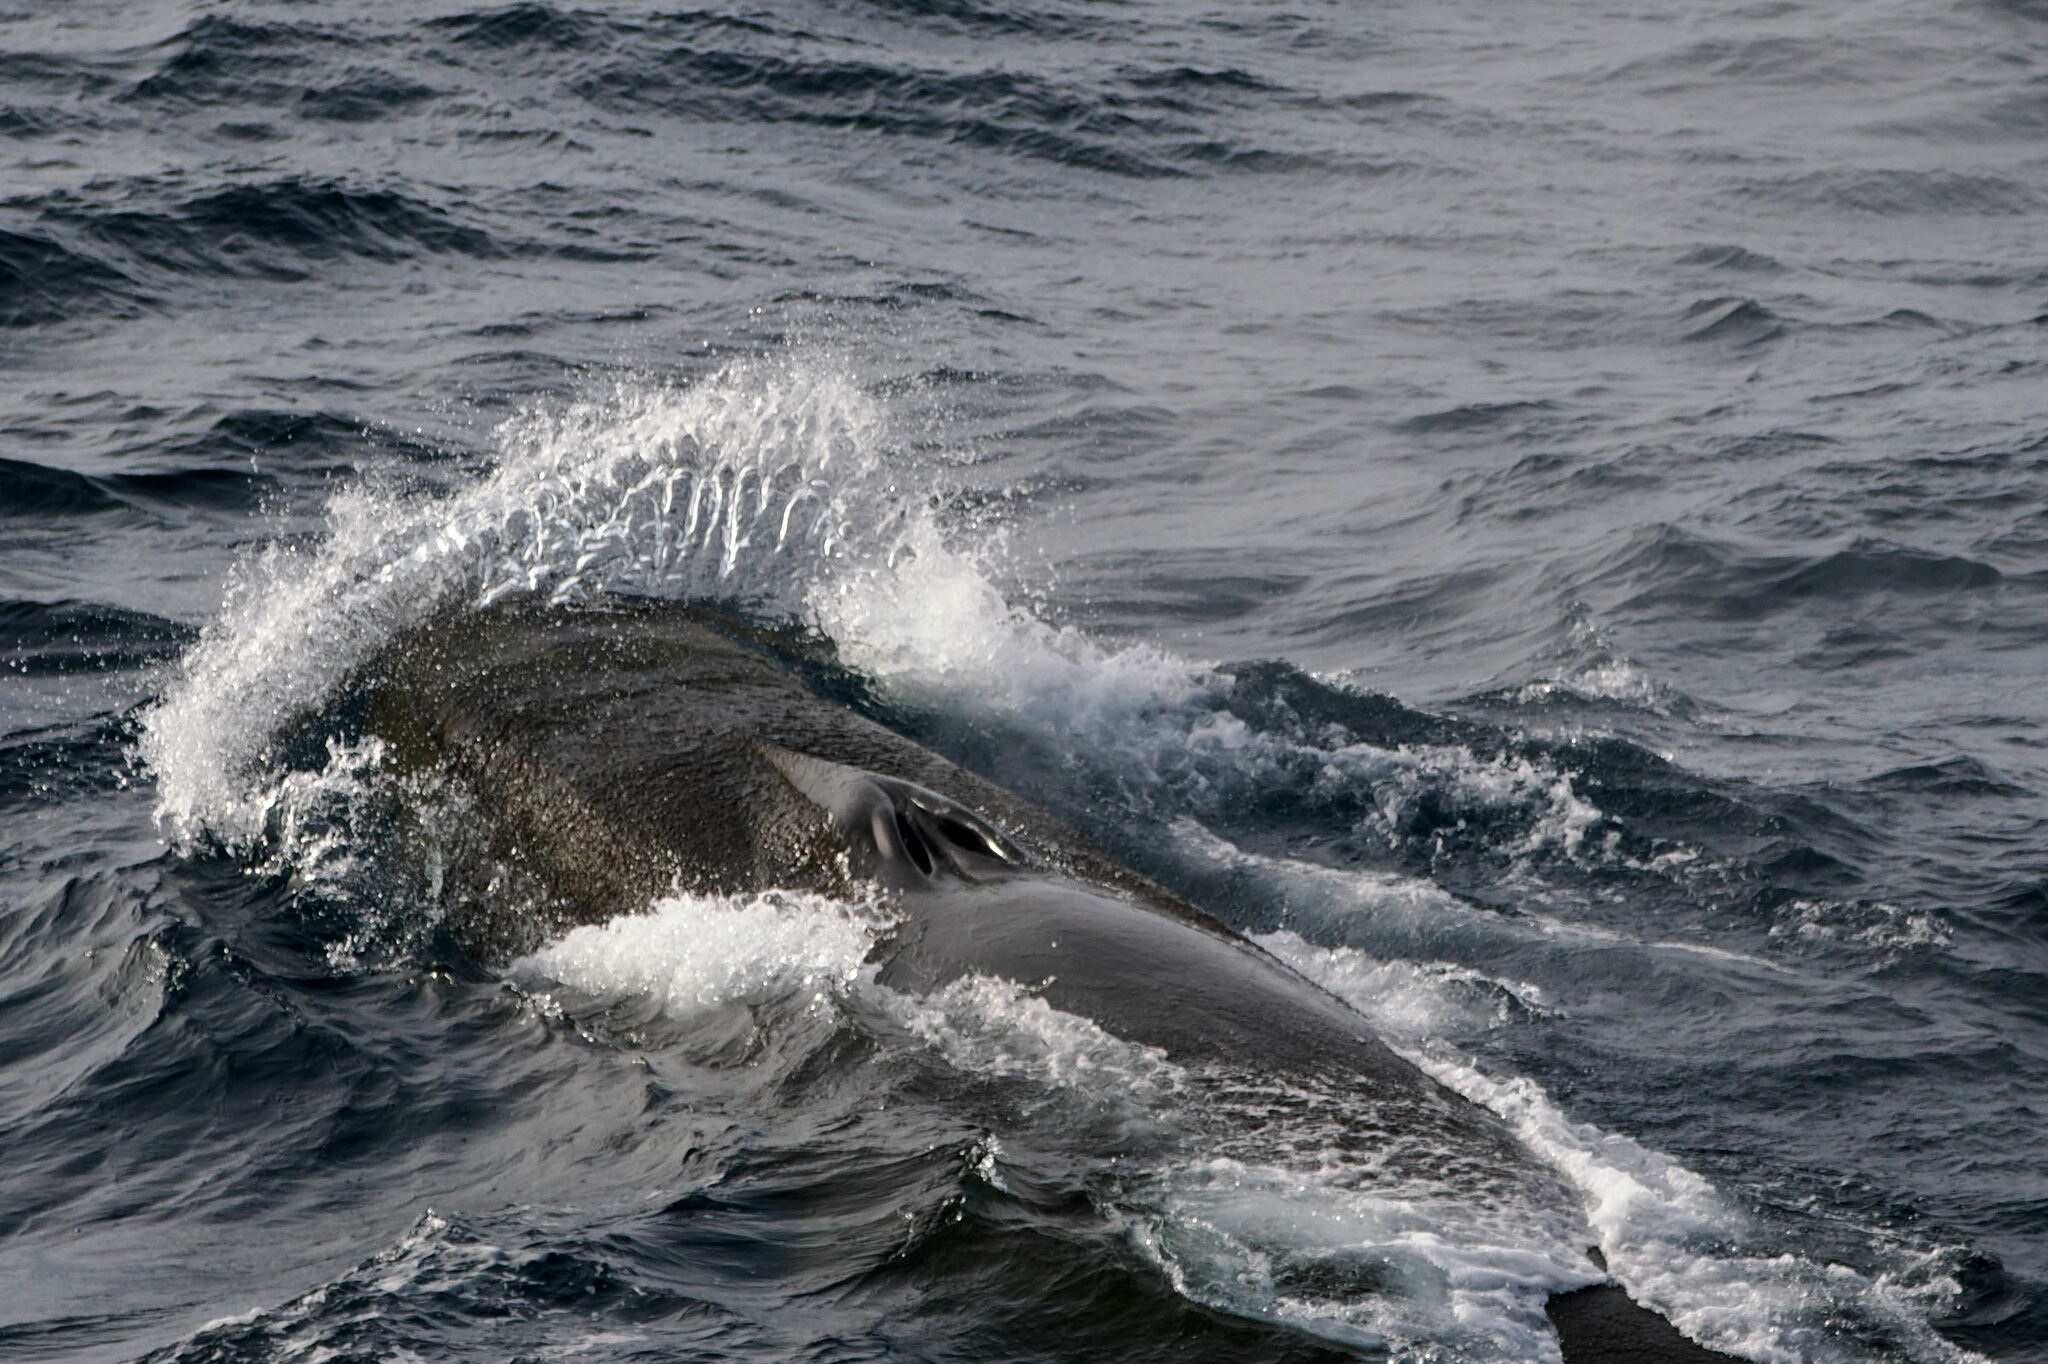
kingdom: Animalia
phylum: Chordata
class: Mammalia
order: Cetacea
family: Balaenopteridae
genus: Balaenoptera
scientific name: Balaenoptera physalus
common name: Fin whale
